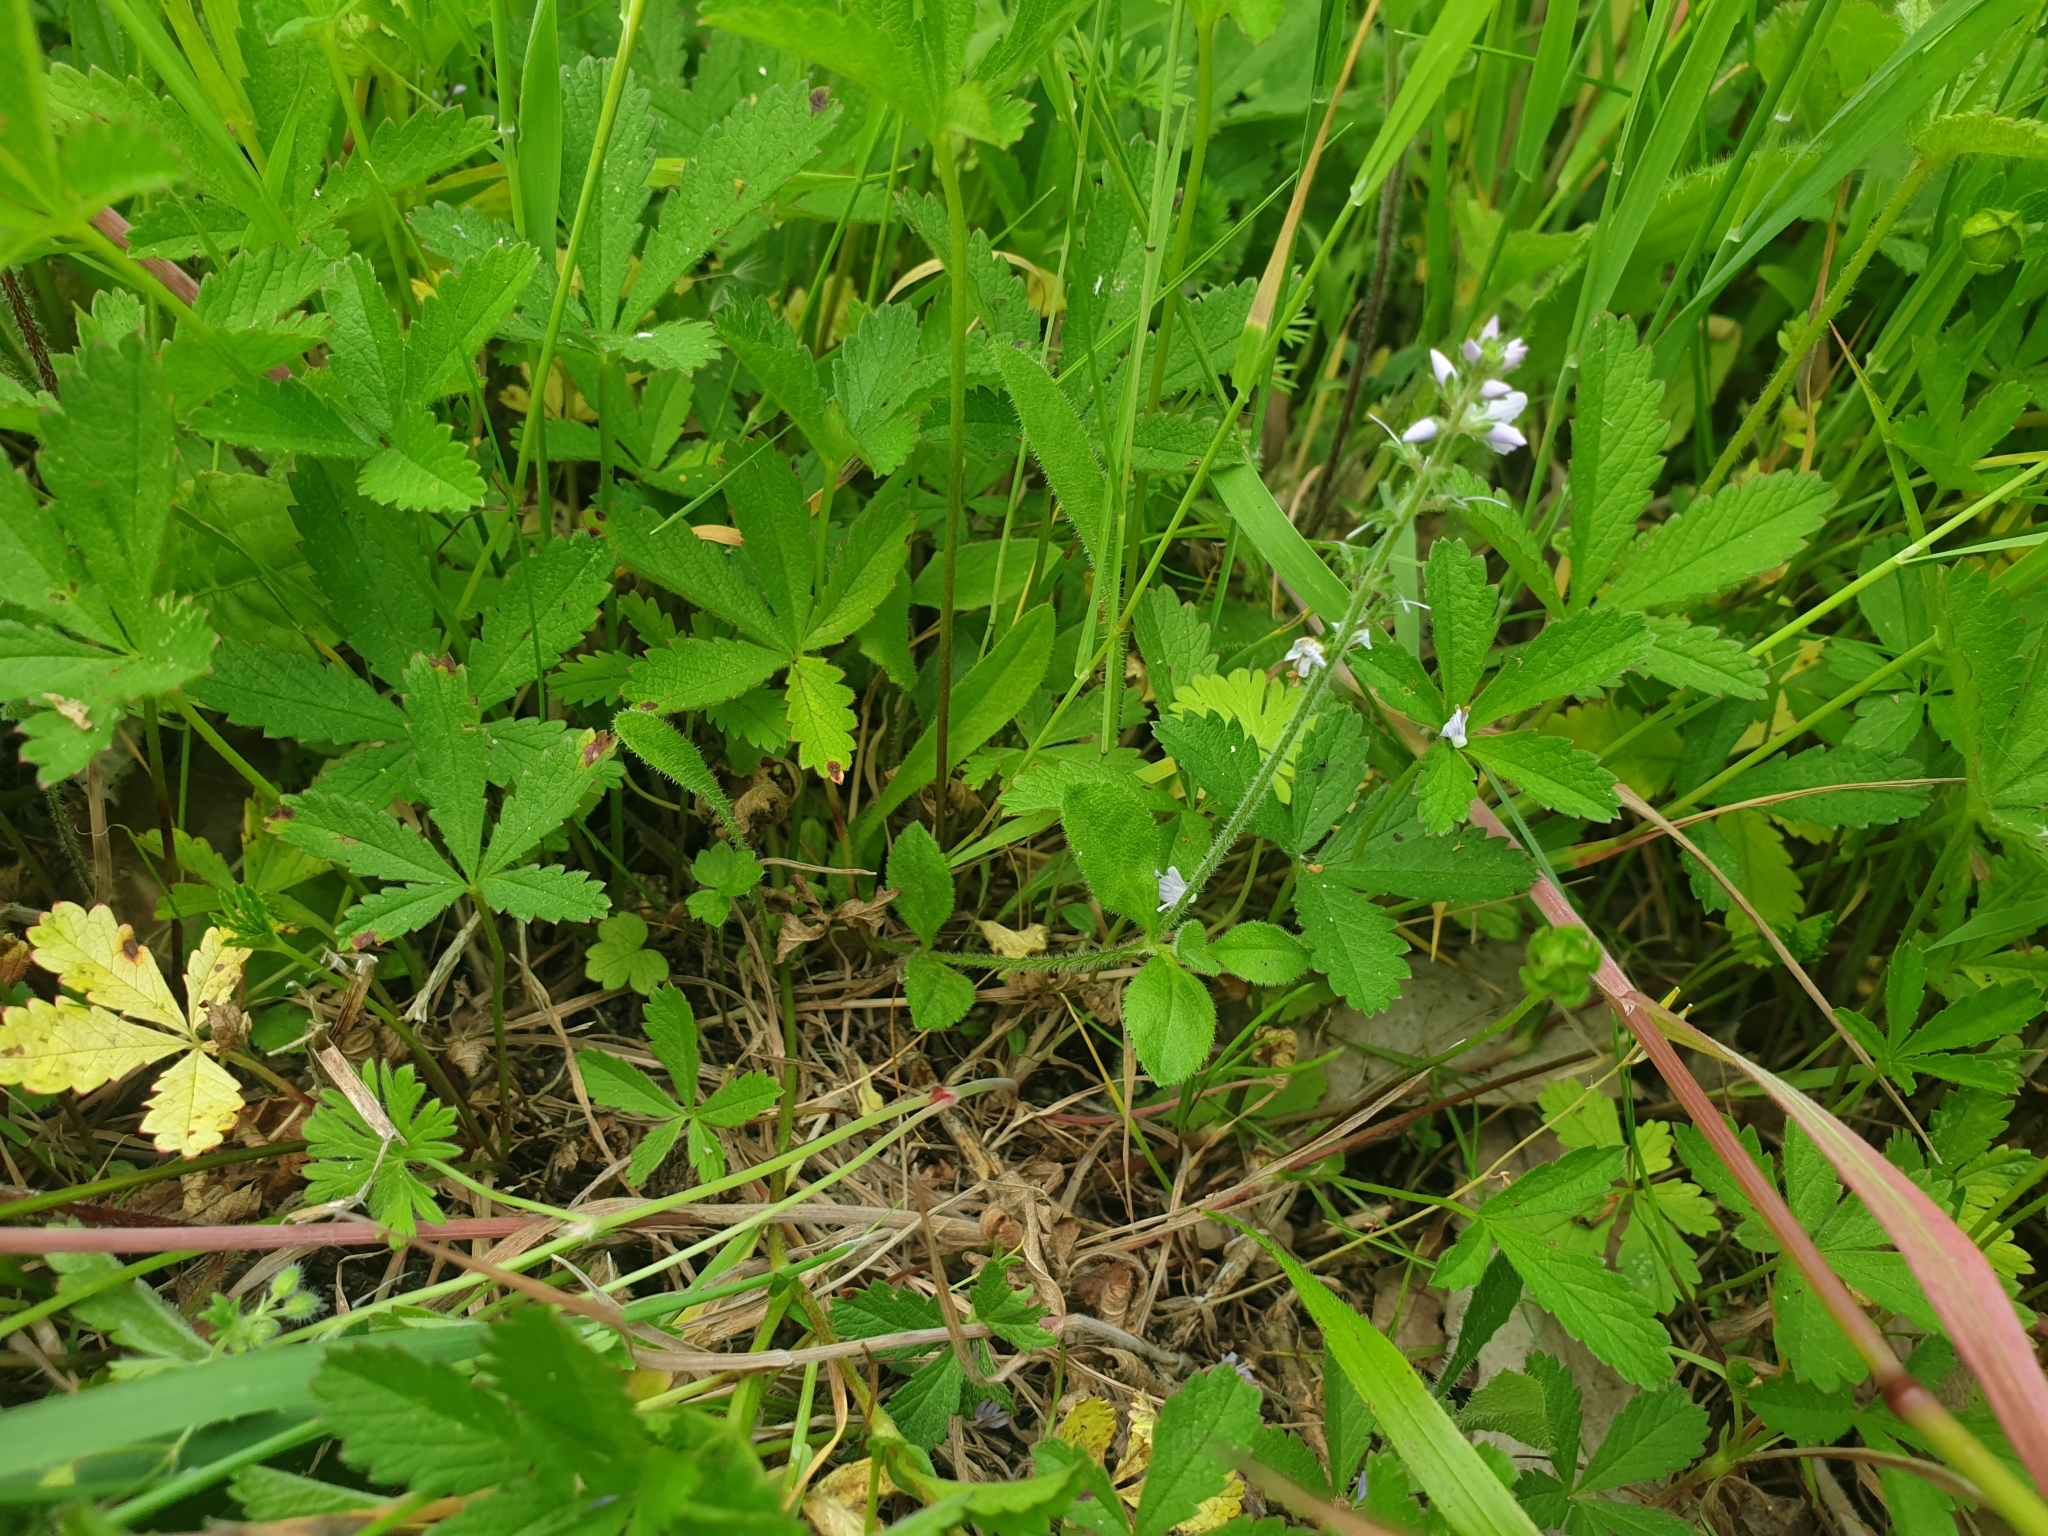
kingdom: Plantae
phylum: Tracheophyta
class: Magnoliopsida
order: Lamiales
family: Plantaginaceae
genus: Veronica
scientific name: Veronica officinalis
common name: Common speedwell
